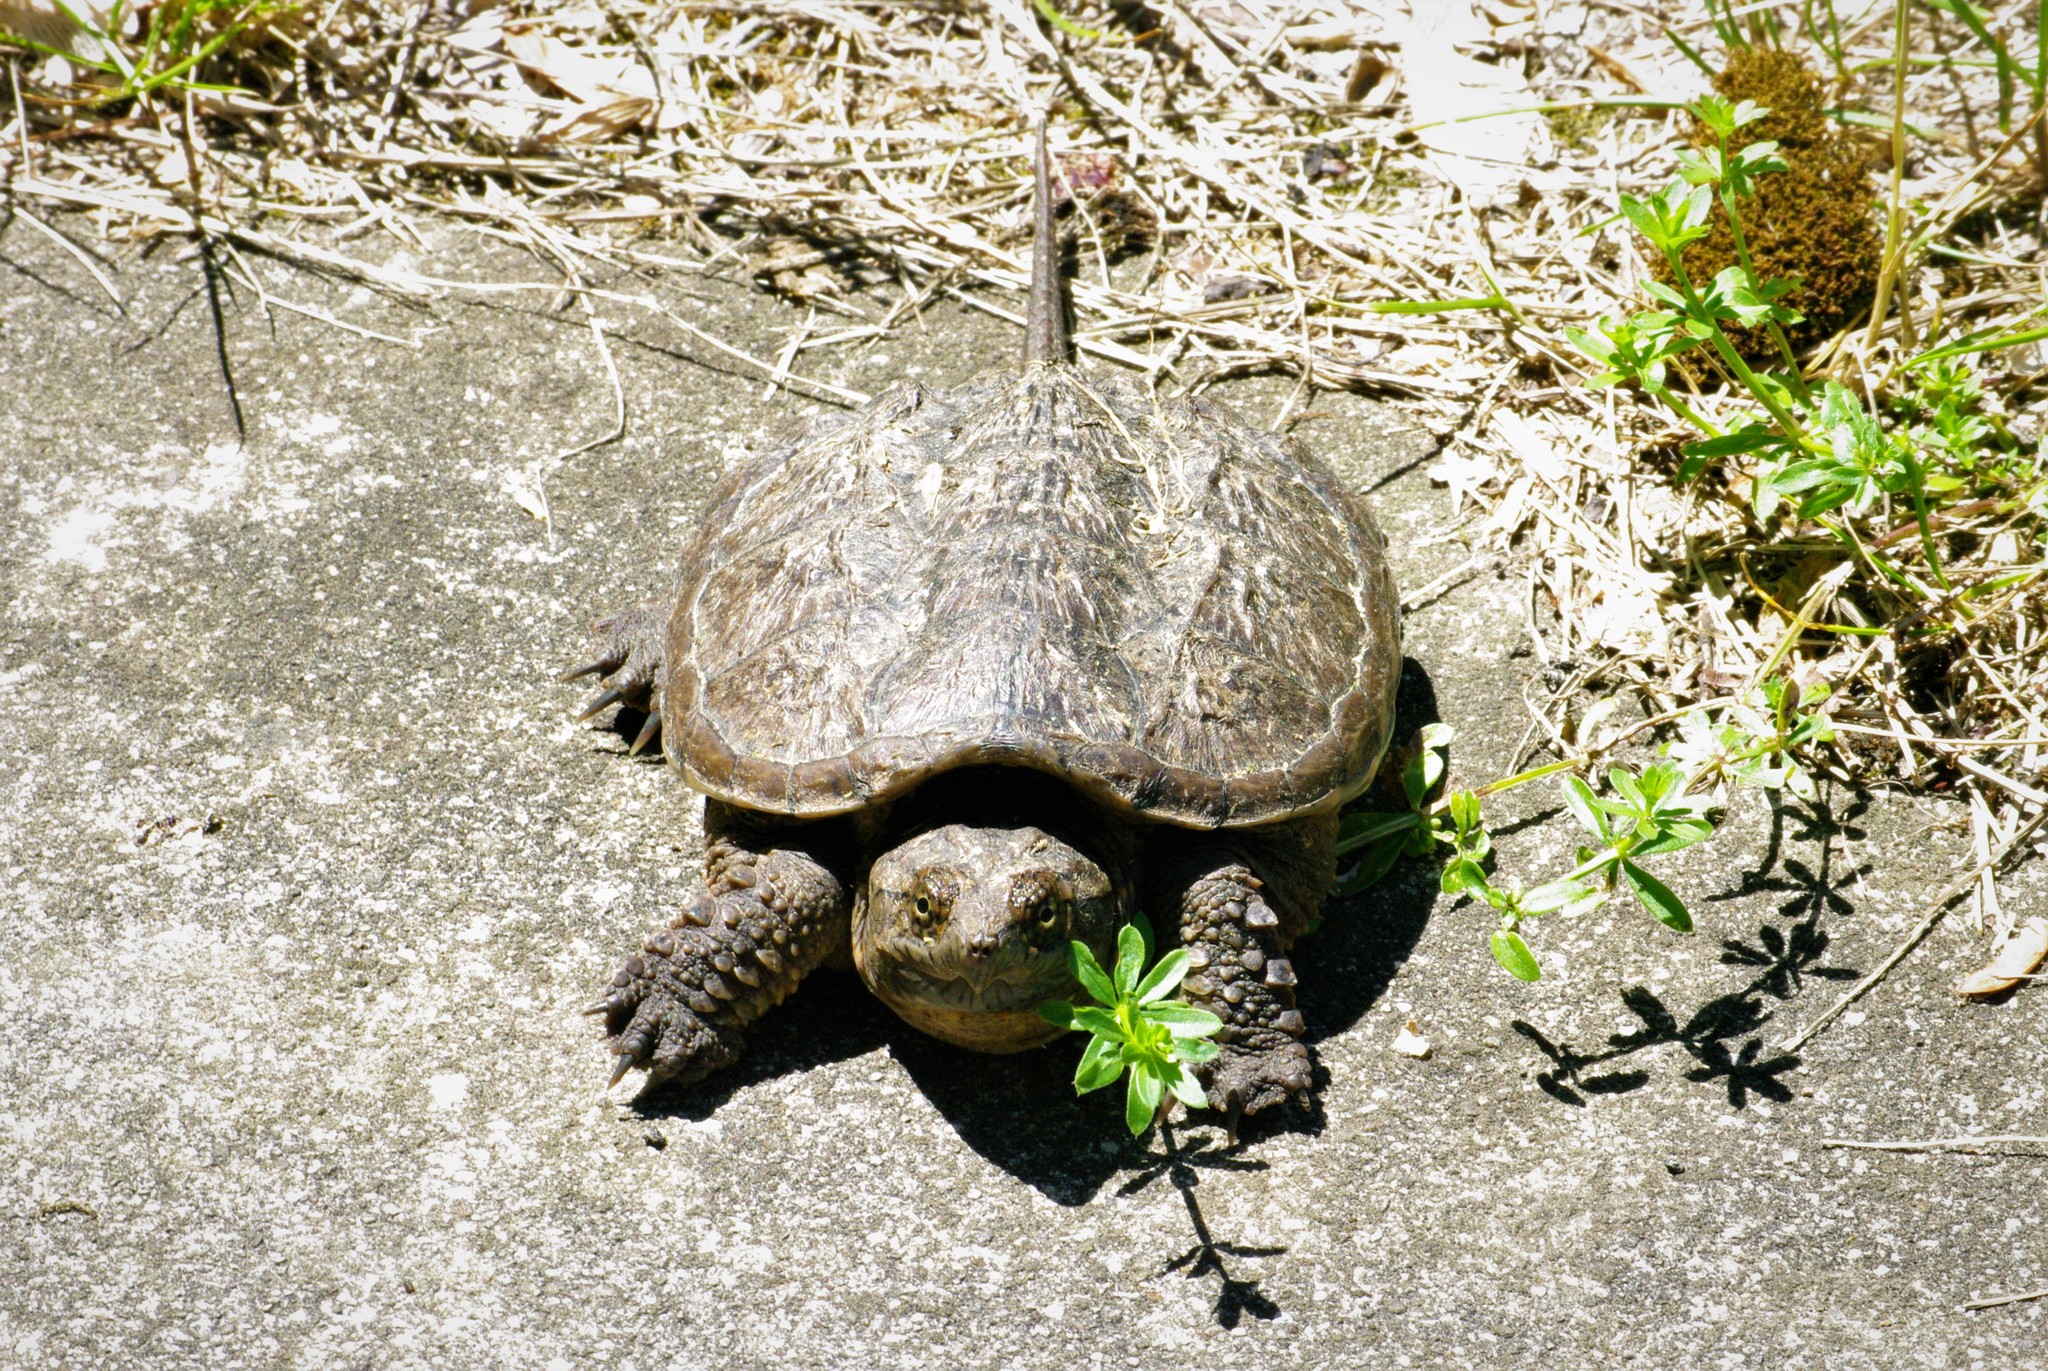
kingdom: Animalia
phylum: Chordata
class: Testudines
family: Chelydridae
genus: Chelydra
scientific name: Chelydra serpentina
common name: Common snapping turtle
